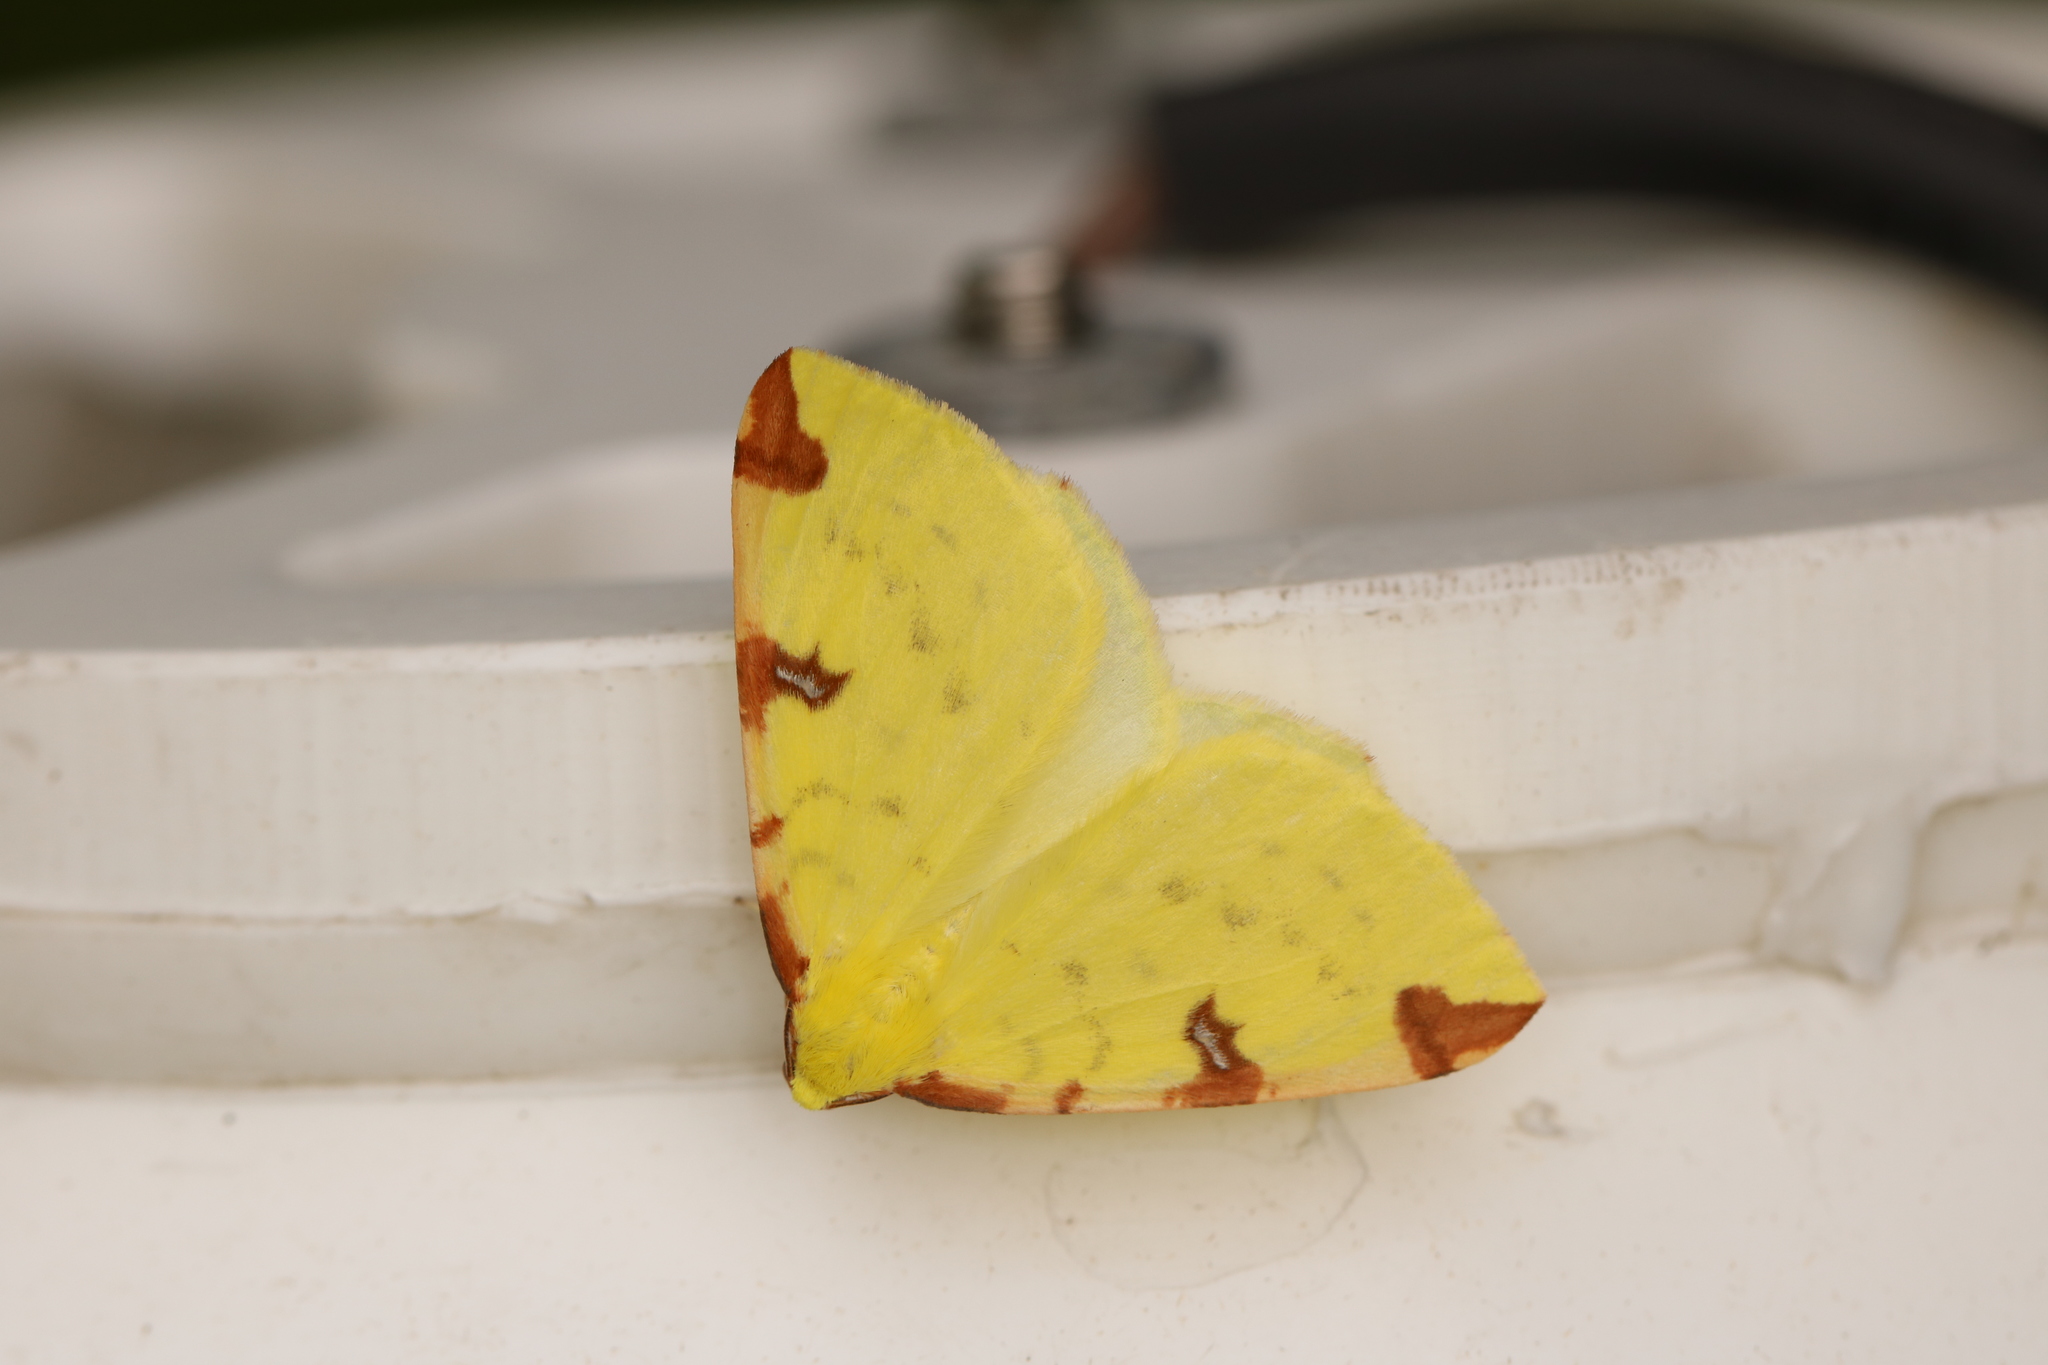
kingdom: Animalia
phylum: Arthropoda
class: Insecta
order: Lepidoptera
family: Geometridae
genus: Opisthograptis
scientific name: Opisthograptis luteolata
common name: Brimstone moth
